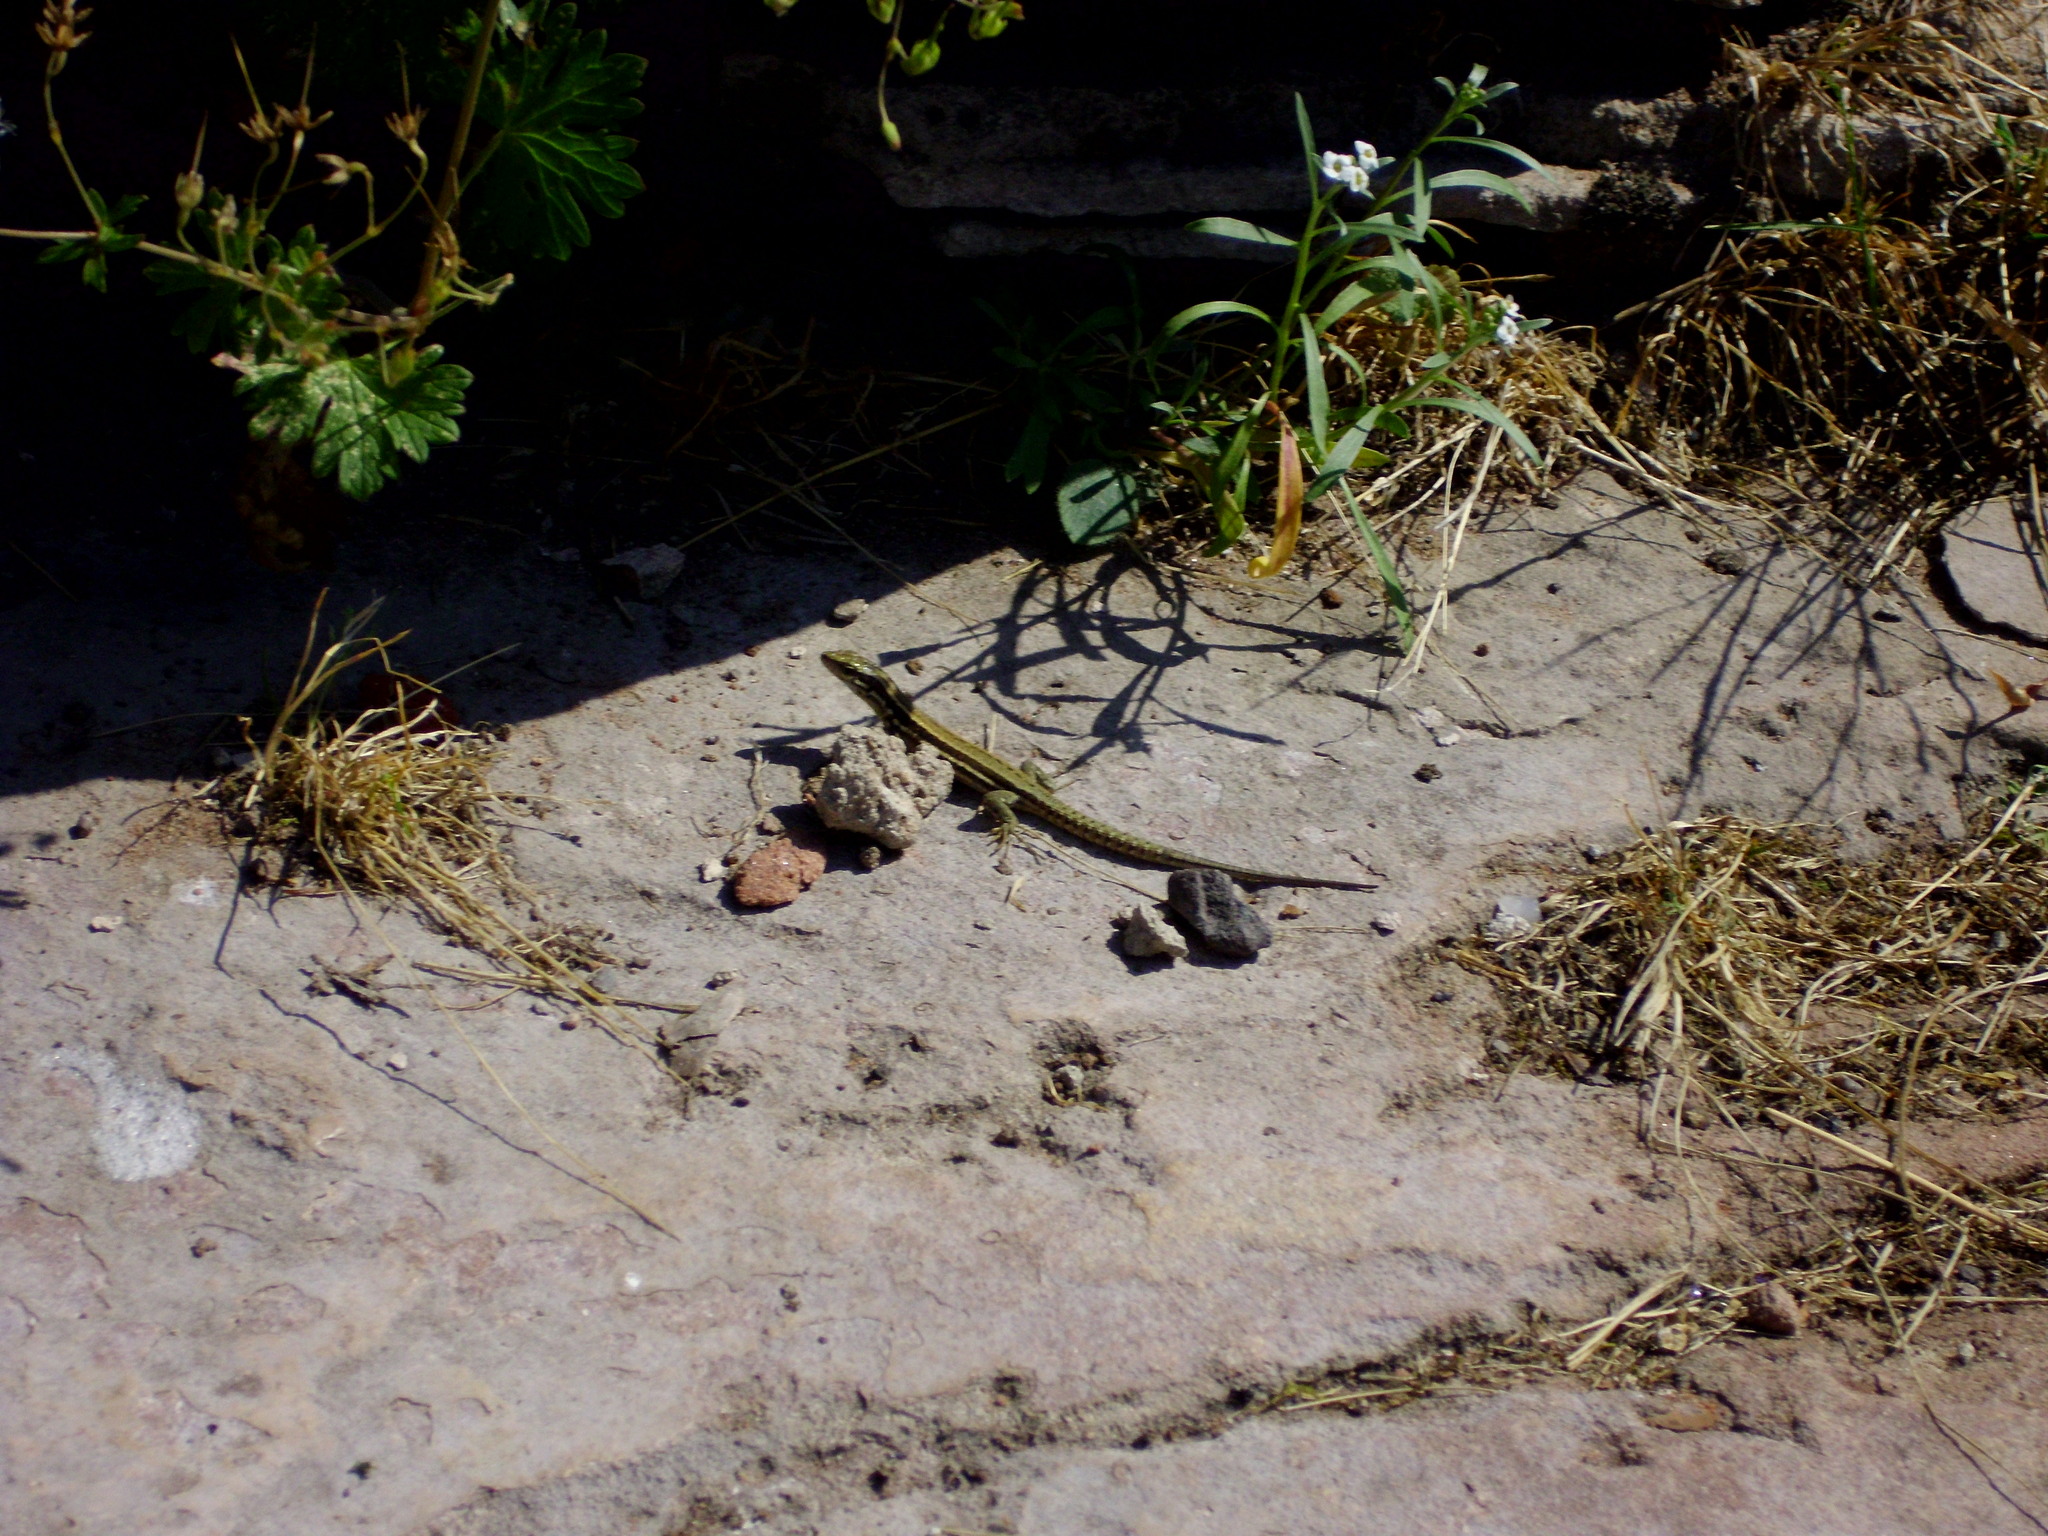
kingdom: Animalia
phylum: Chordata
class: Squamata
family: Lacertidae
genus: Podarcis
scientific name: Podarcis muralis
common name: Common wall lizard
